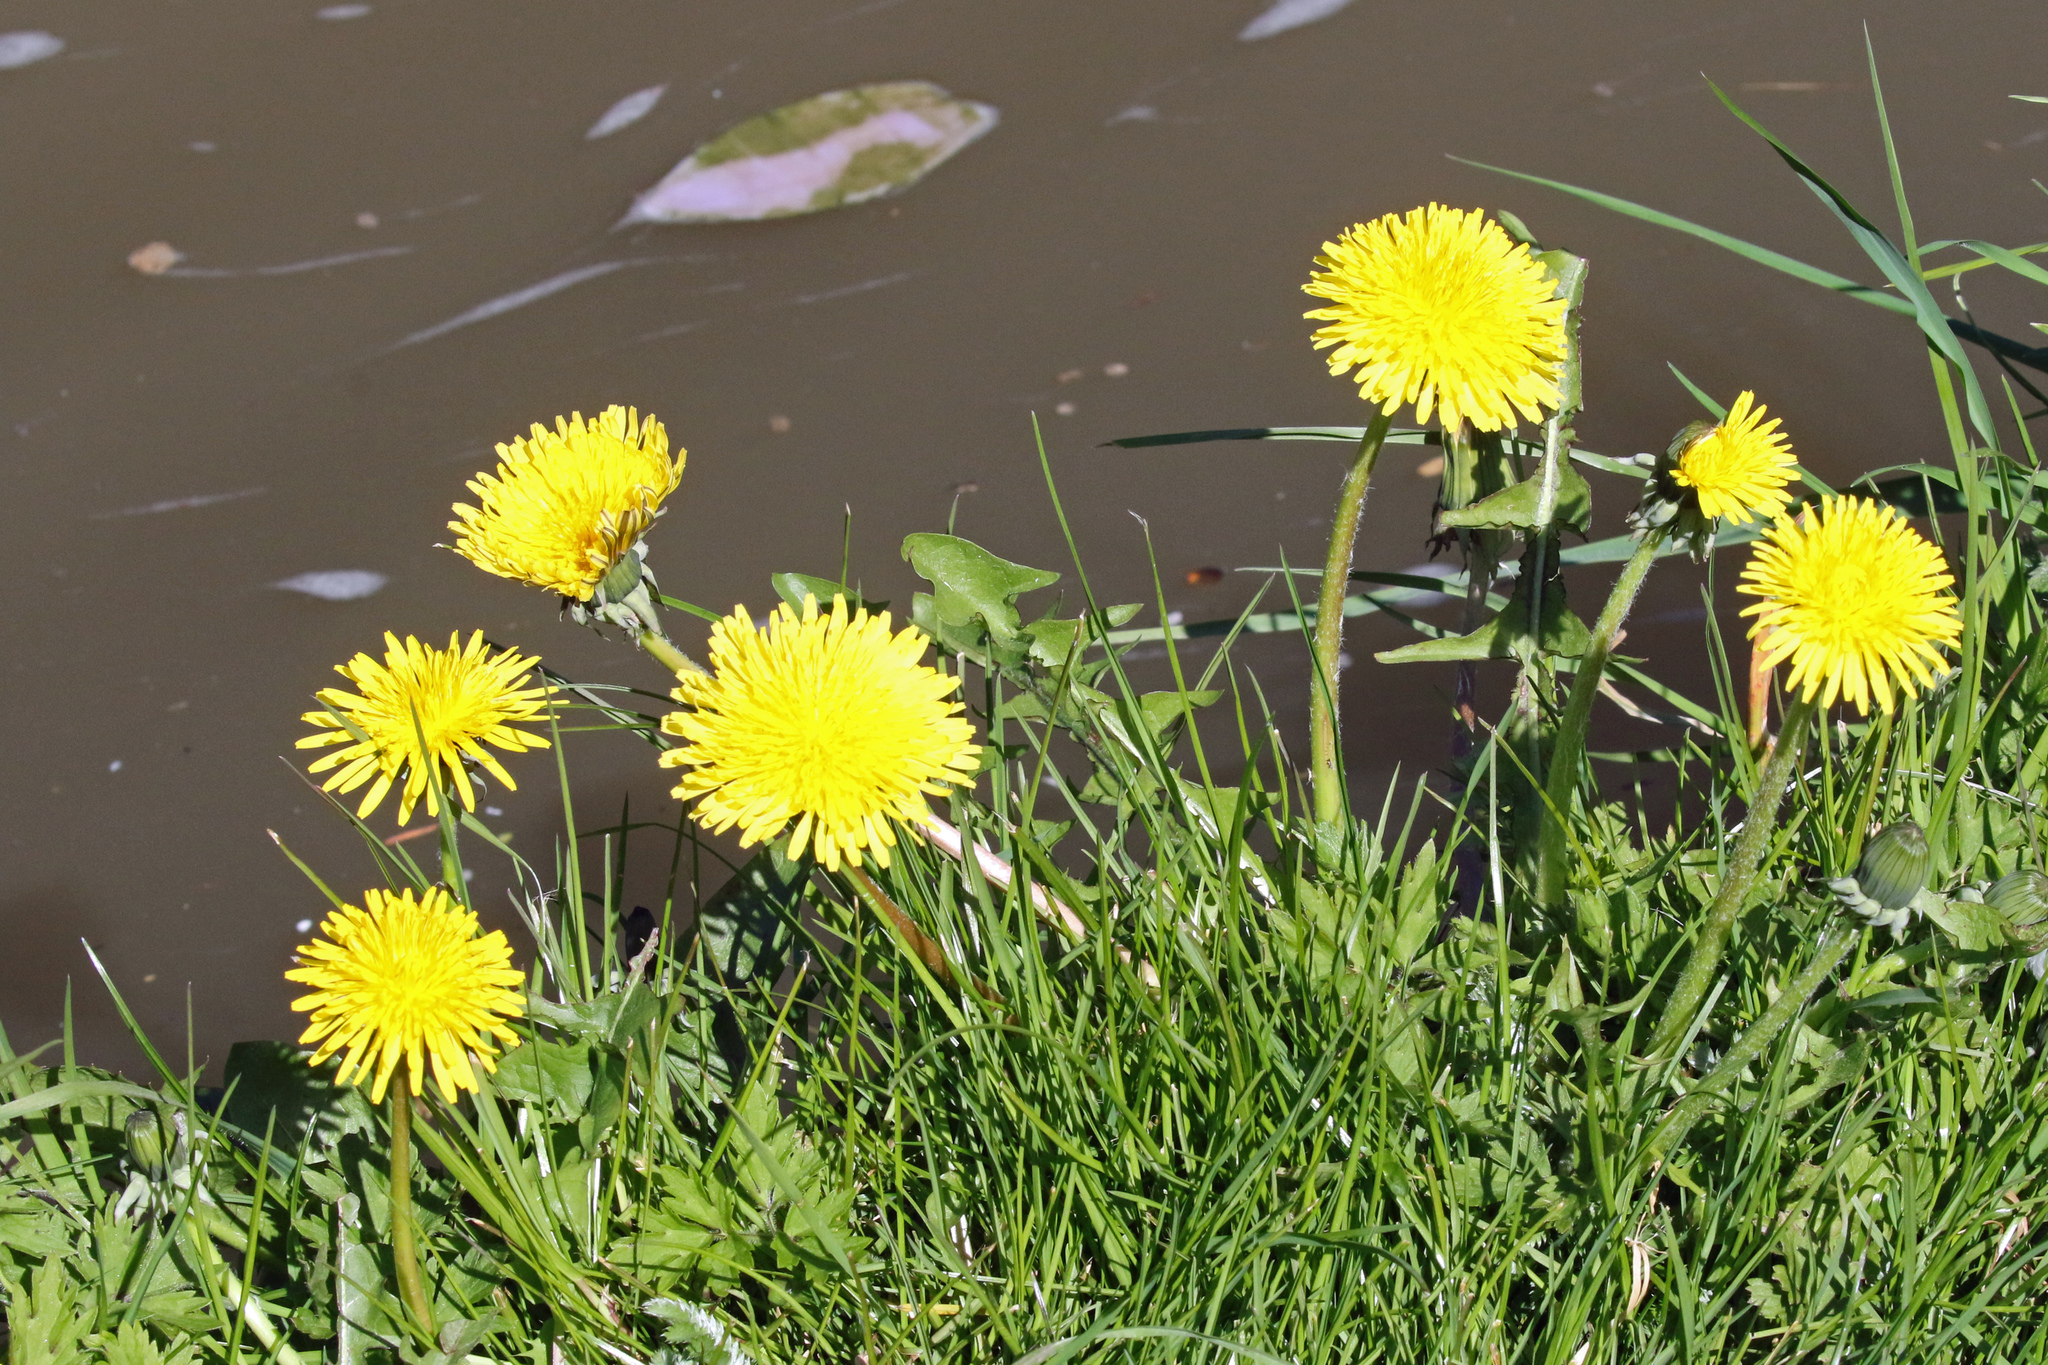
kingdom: Plantae
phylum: Tracheophyta
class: Magnoliopsida
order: Asterales
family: Asteraceae
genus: Taraxacum
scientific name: Taraxacum officinale
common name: Common dandelion
